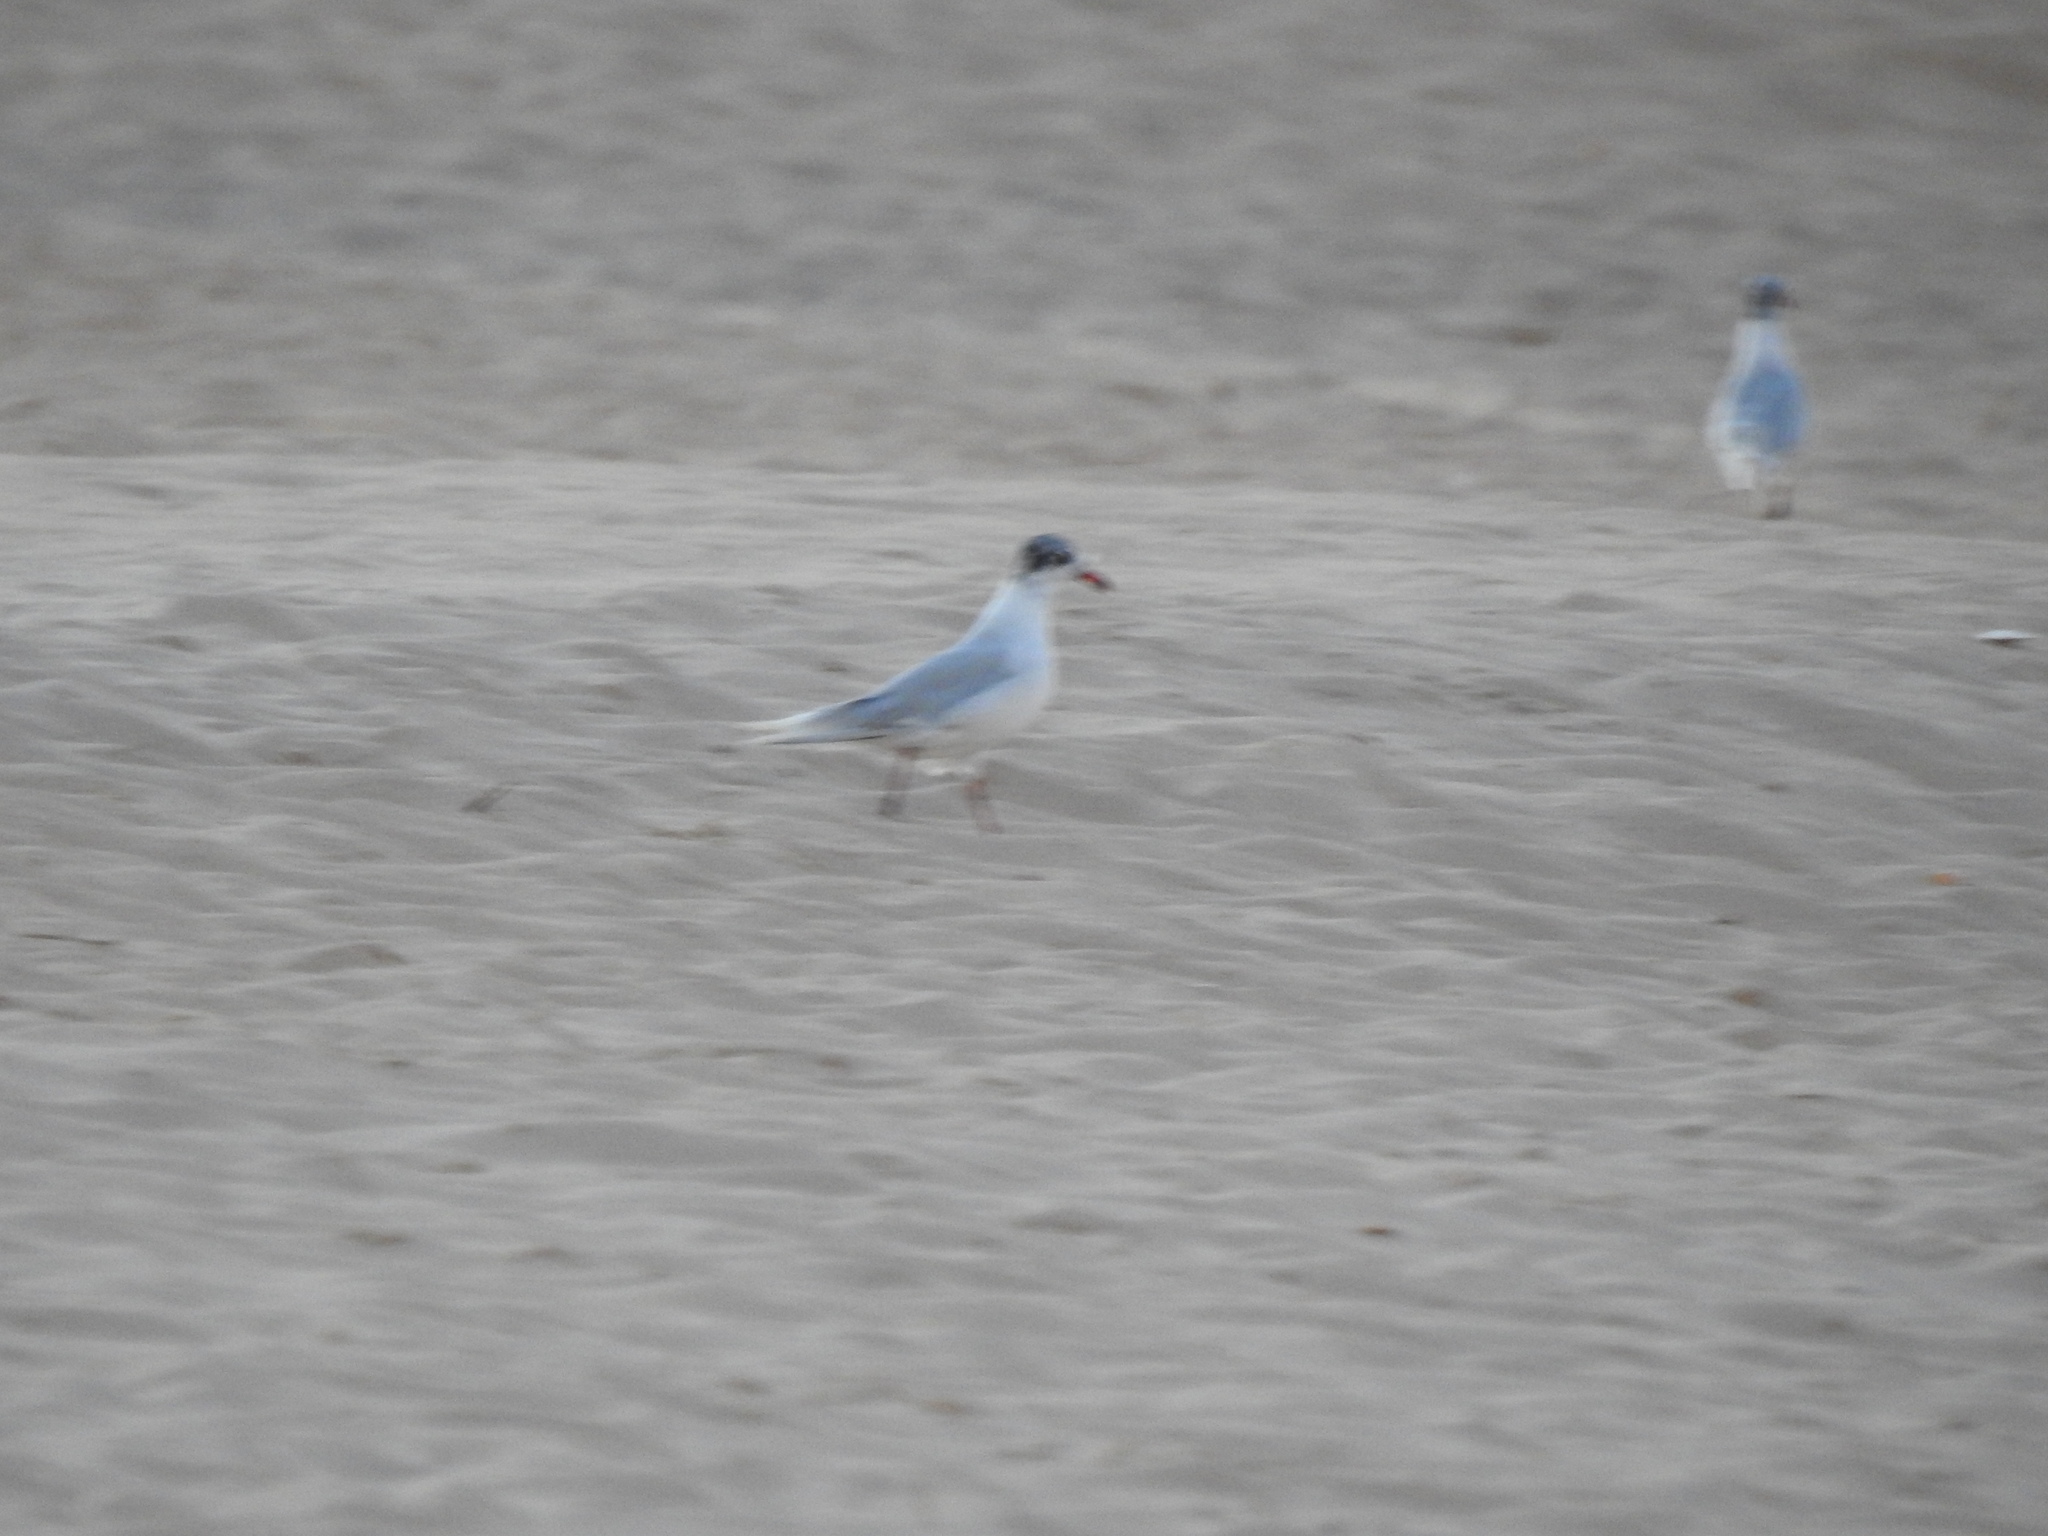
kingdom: Animalia
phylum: Chordata
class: Aves
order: Charadriiformes
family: Laridae
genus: Ichthyaetus
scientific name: Ichthyaetus melanocephalus
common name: Mediterranean gull
